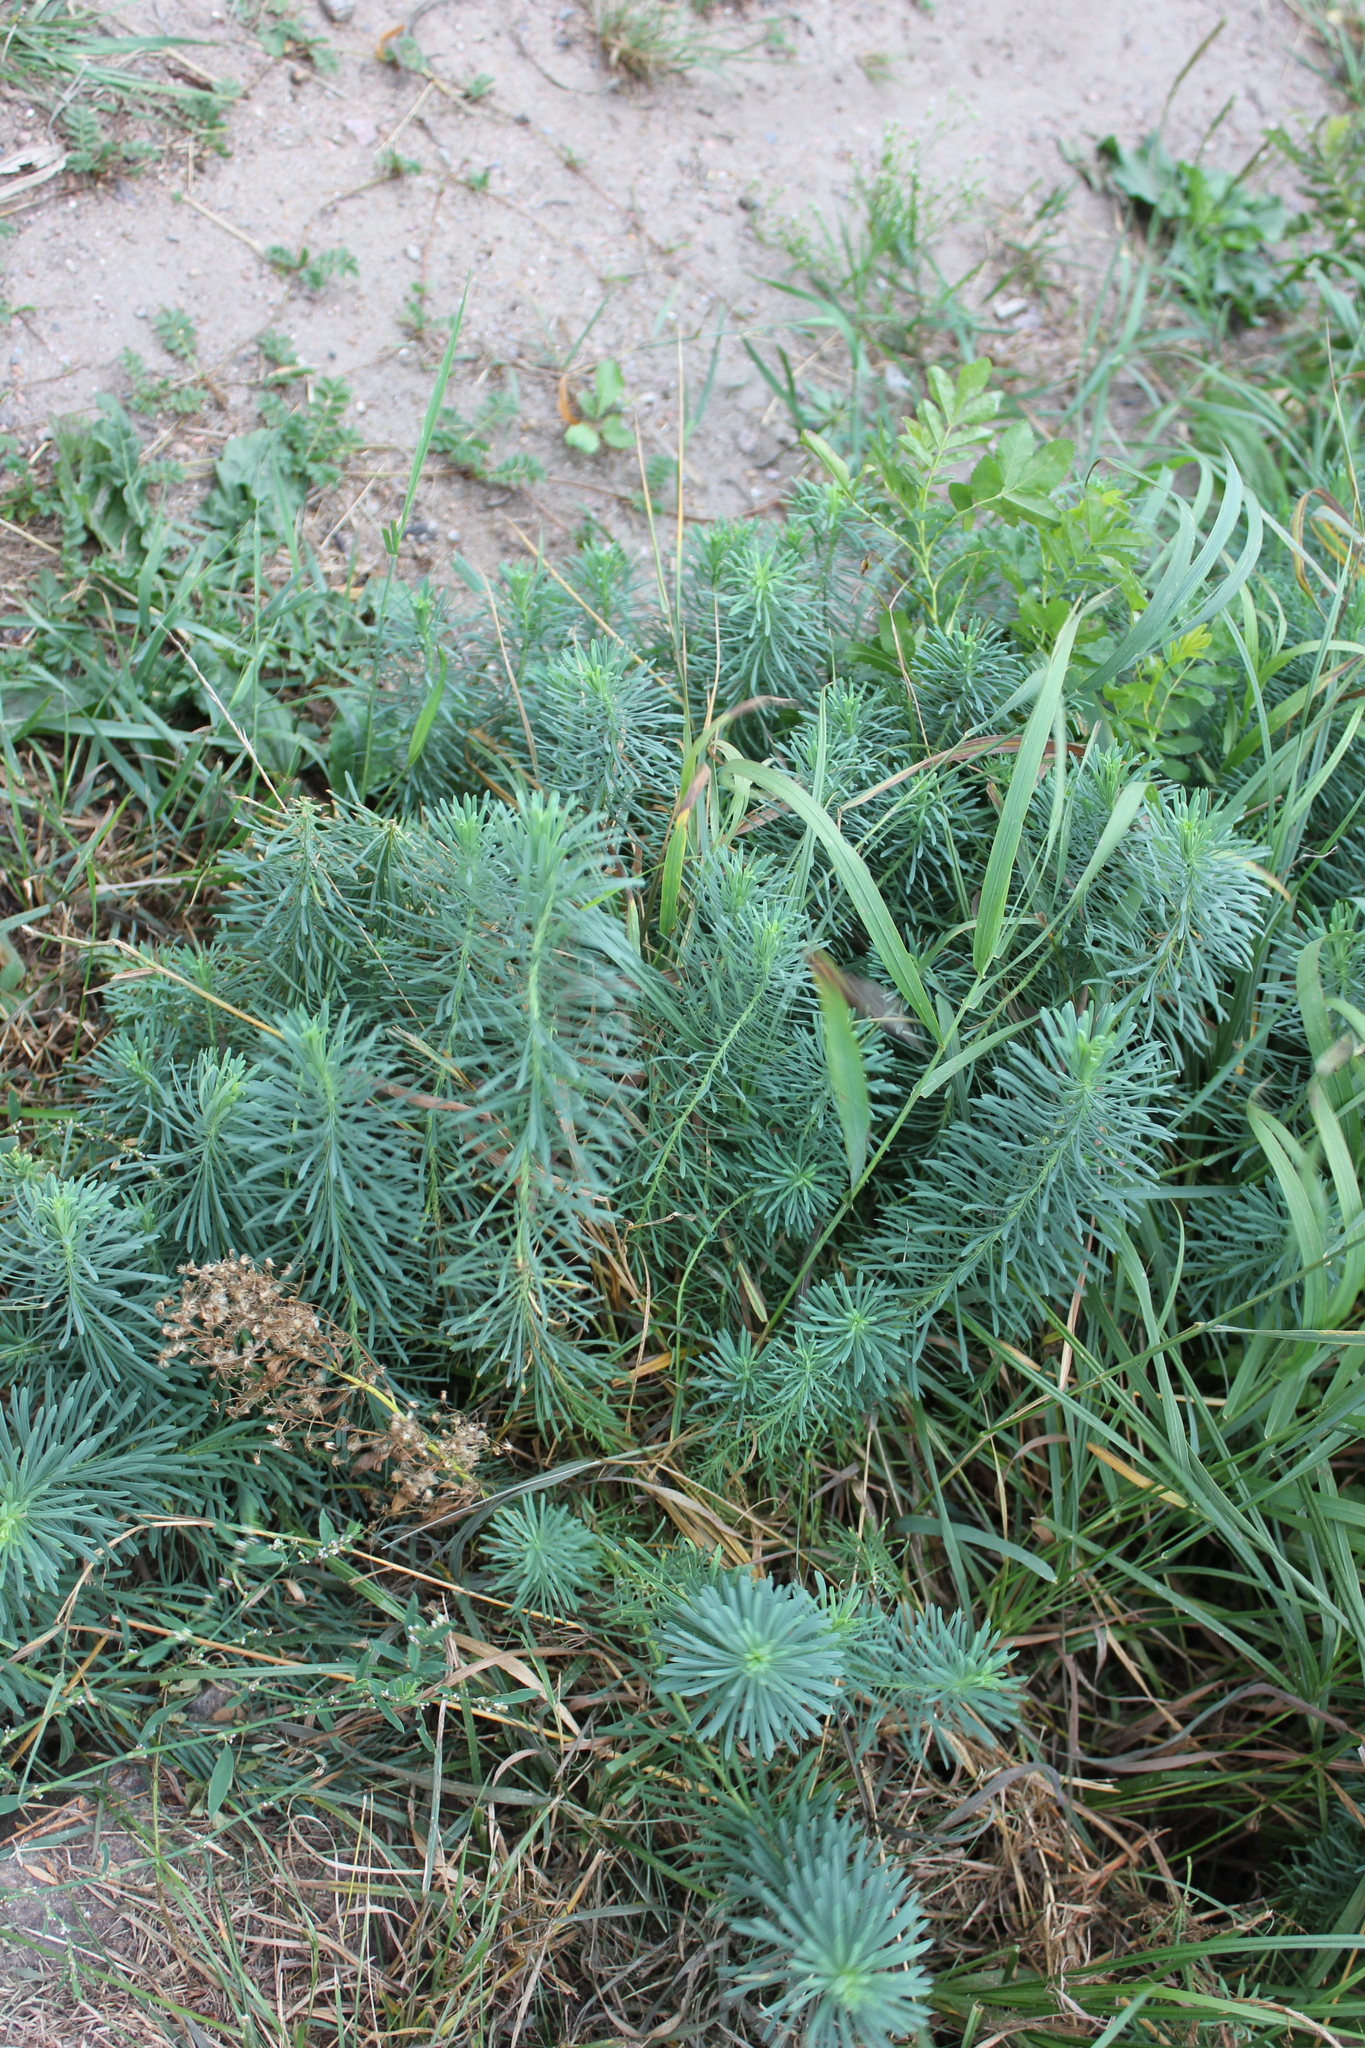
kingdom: Plantae
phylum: Tracheophyta
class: Magnoliopsida
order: Malpighiales
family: Euphorbiaceae
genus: Euphorbia
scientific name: Euphorbia cyparissias
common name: Cypress spurge
